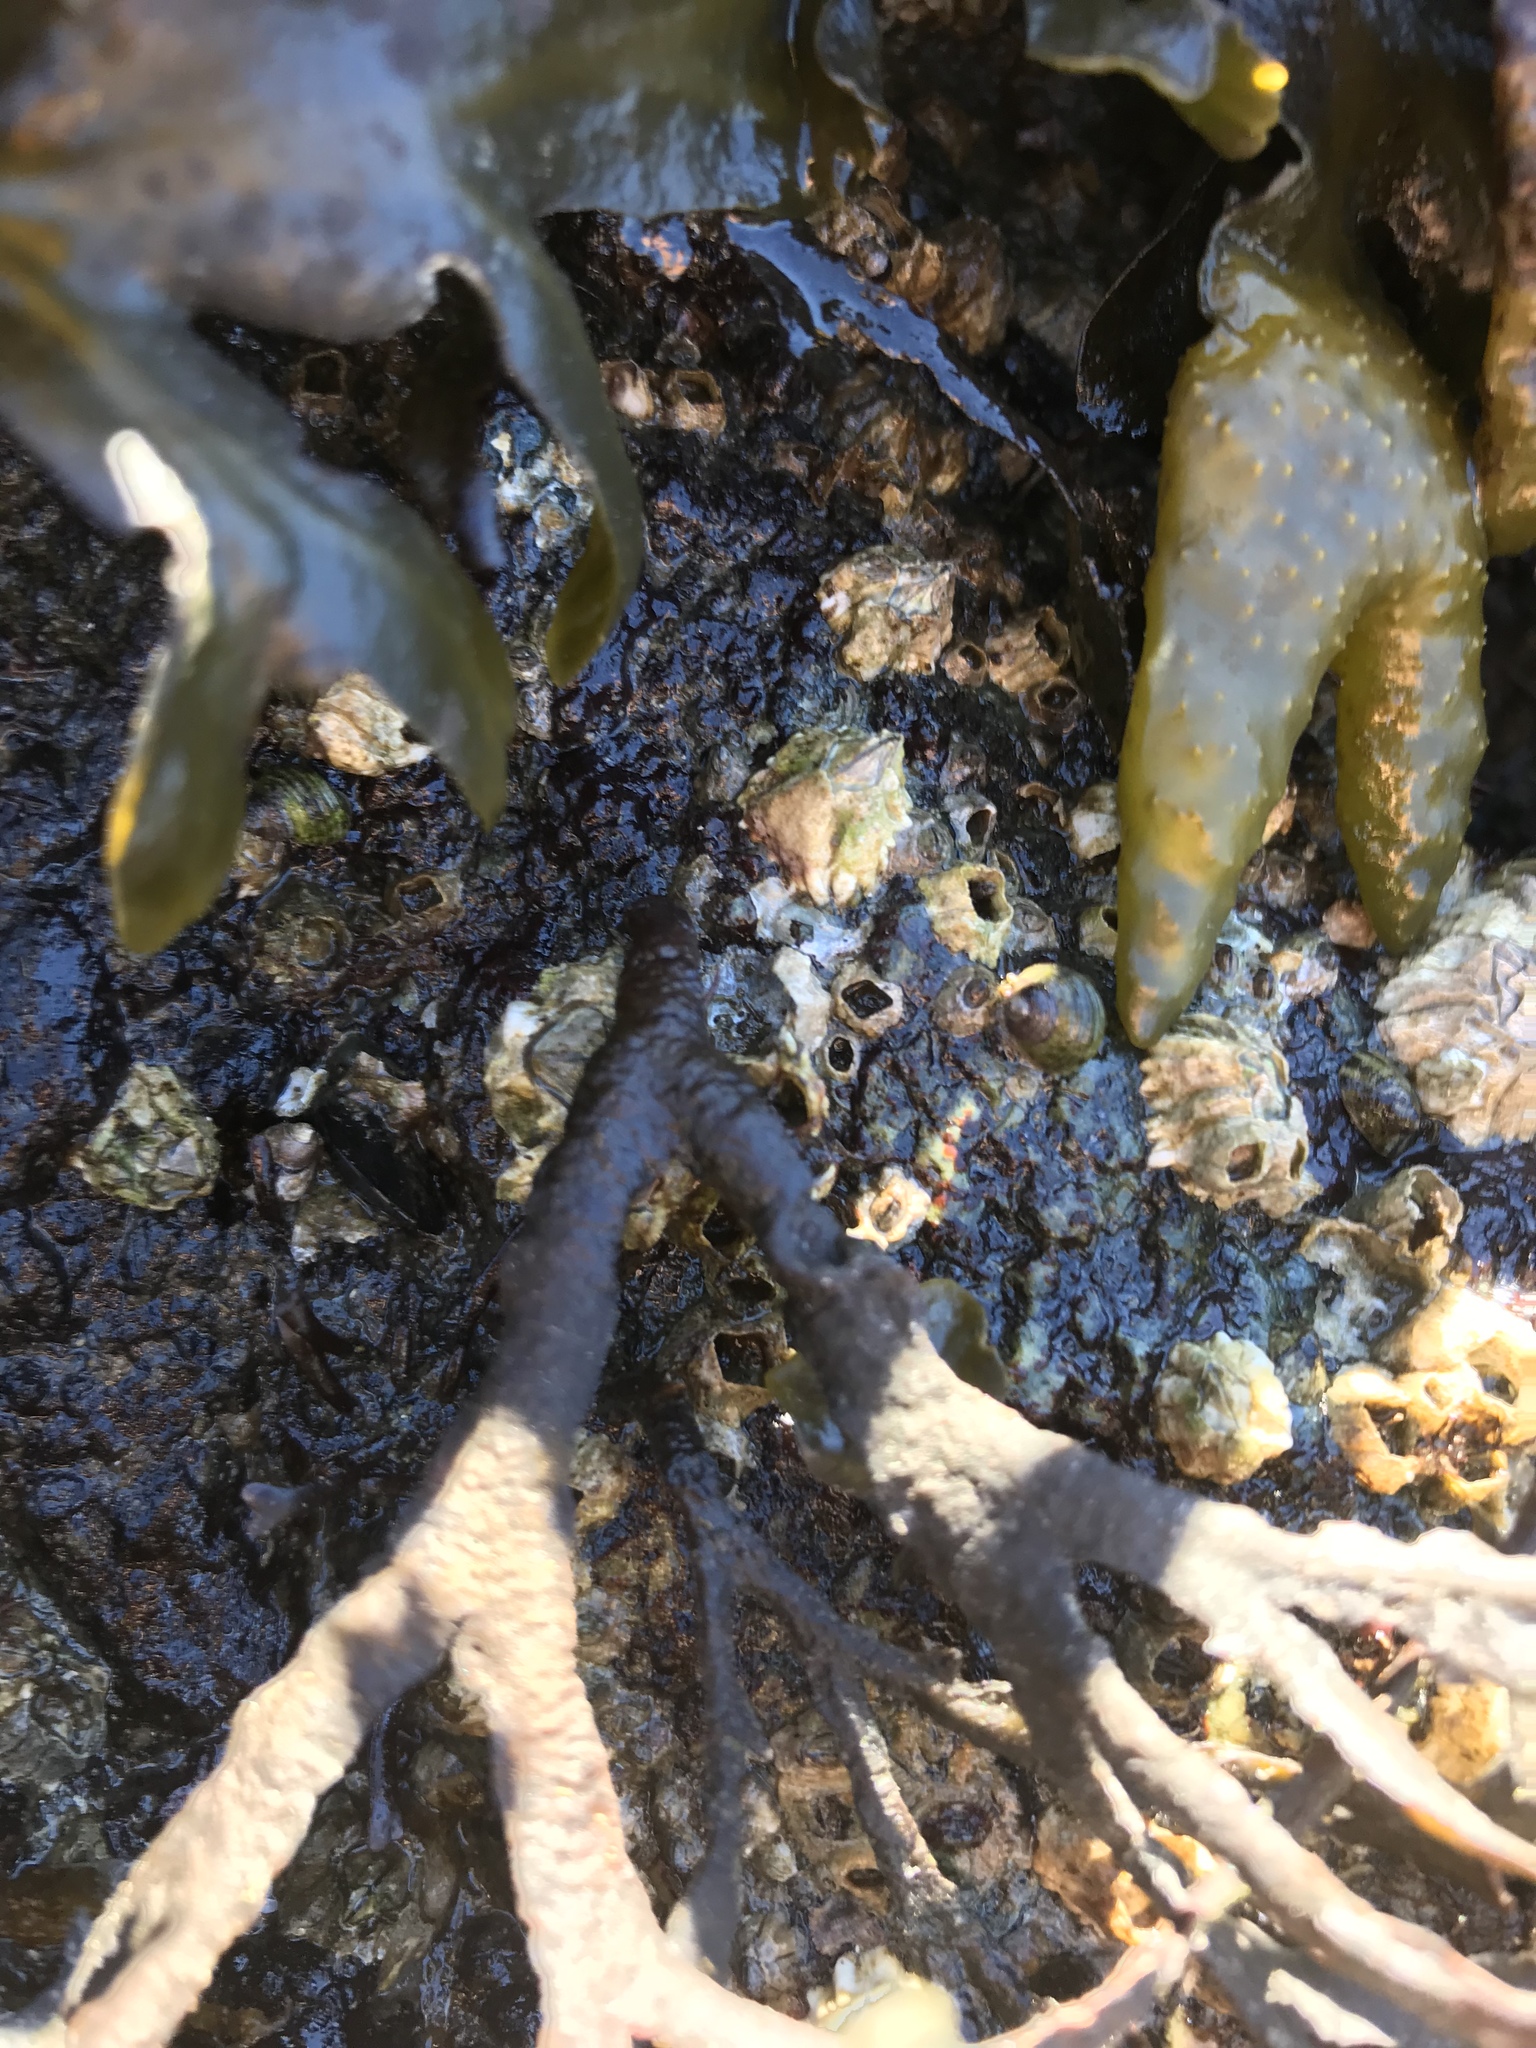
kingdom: Chromista
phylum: Ochrophyta
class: Phaeophyceae
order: Fucales
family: Fucaceae
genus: Fucus
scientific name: Fucus distichus
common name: Rockweed
